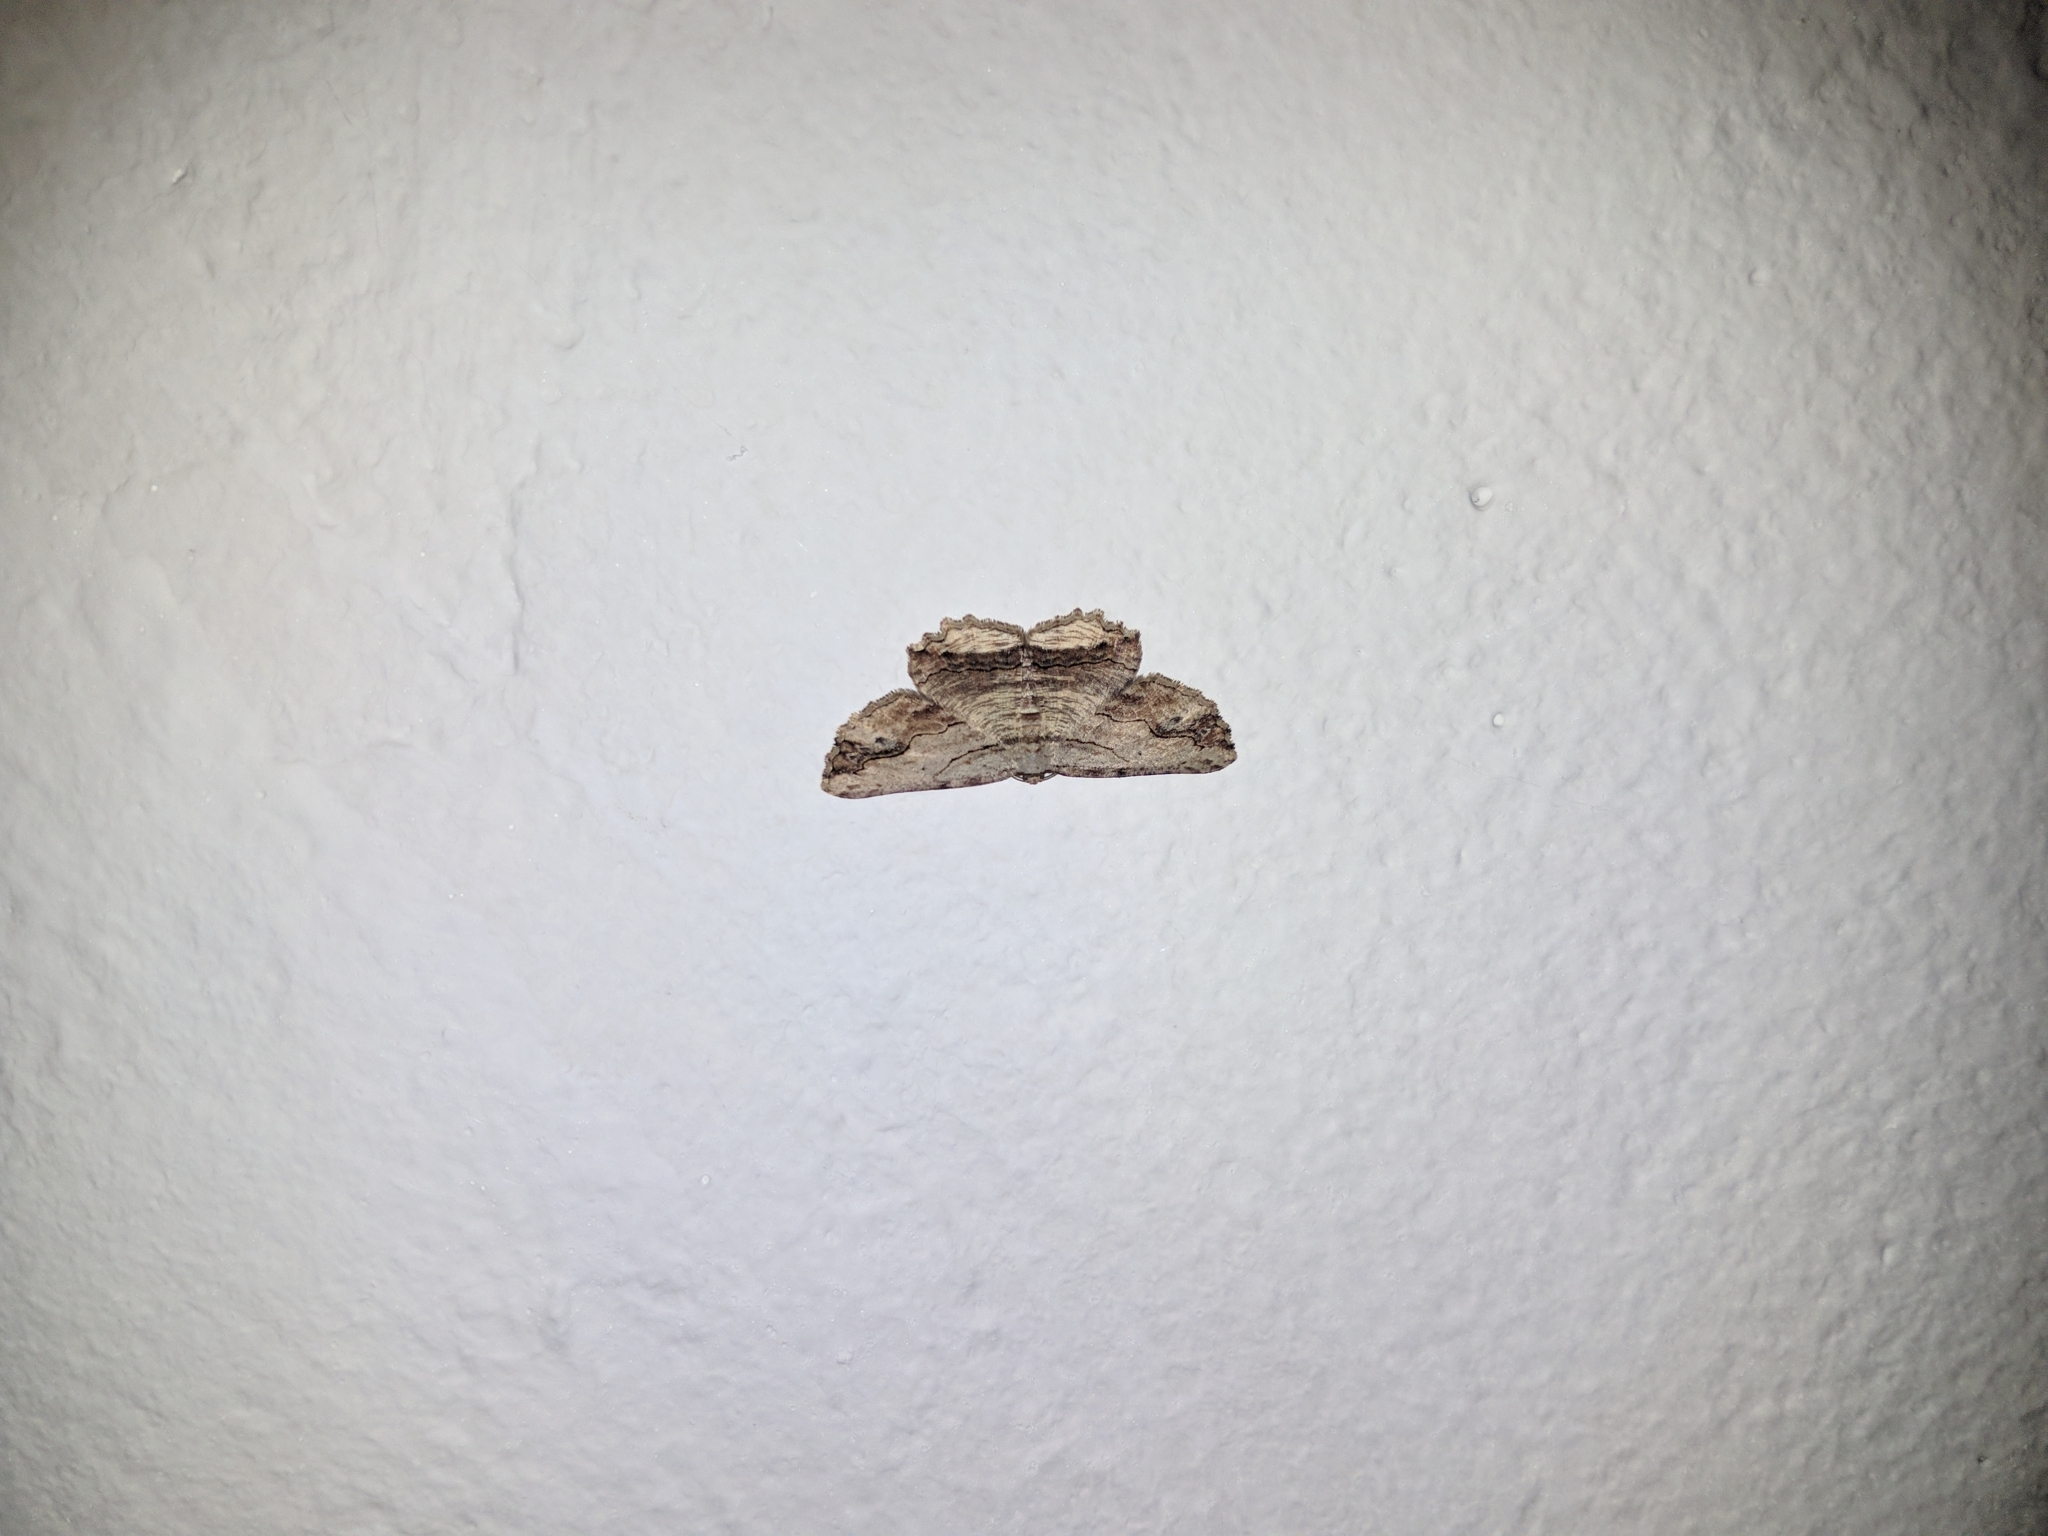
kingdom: Animalia
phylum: Arthropoda
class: Insecta
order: Lepidoptera
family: Geometridae
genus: Menophra
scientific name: Menophra abruptaria
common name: Waved umber
